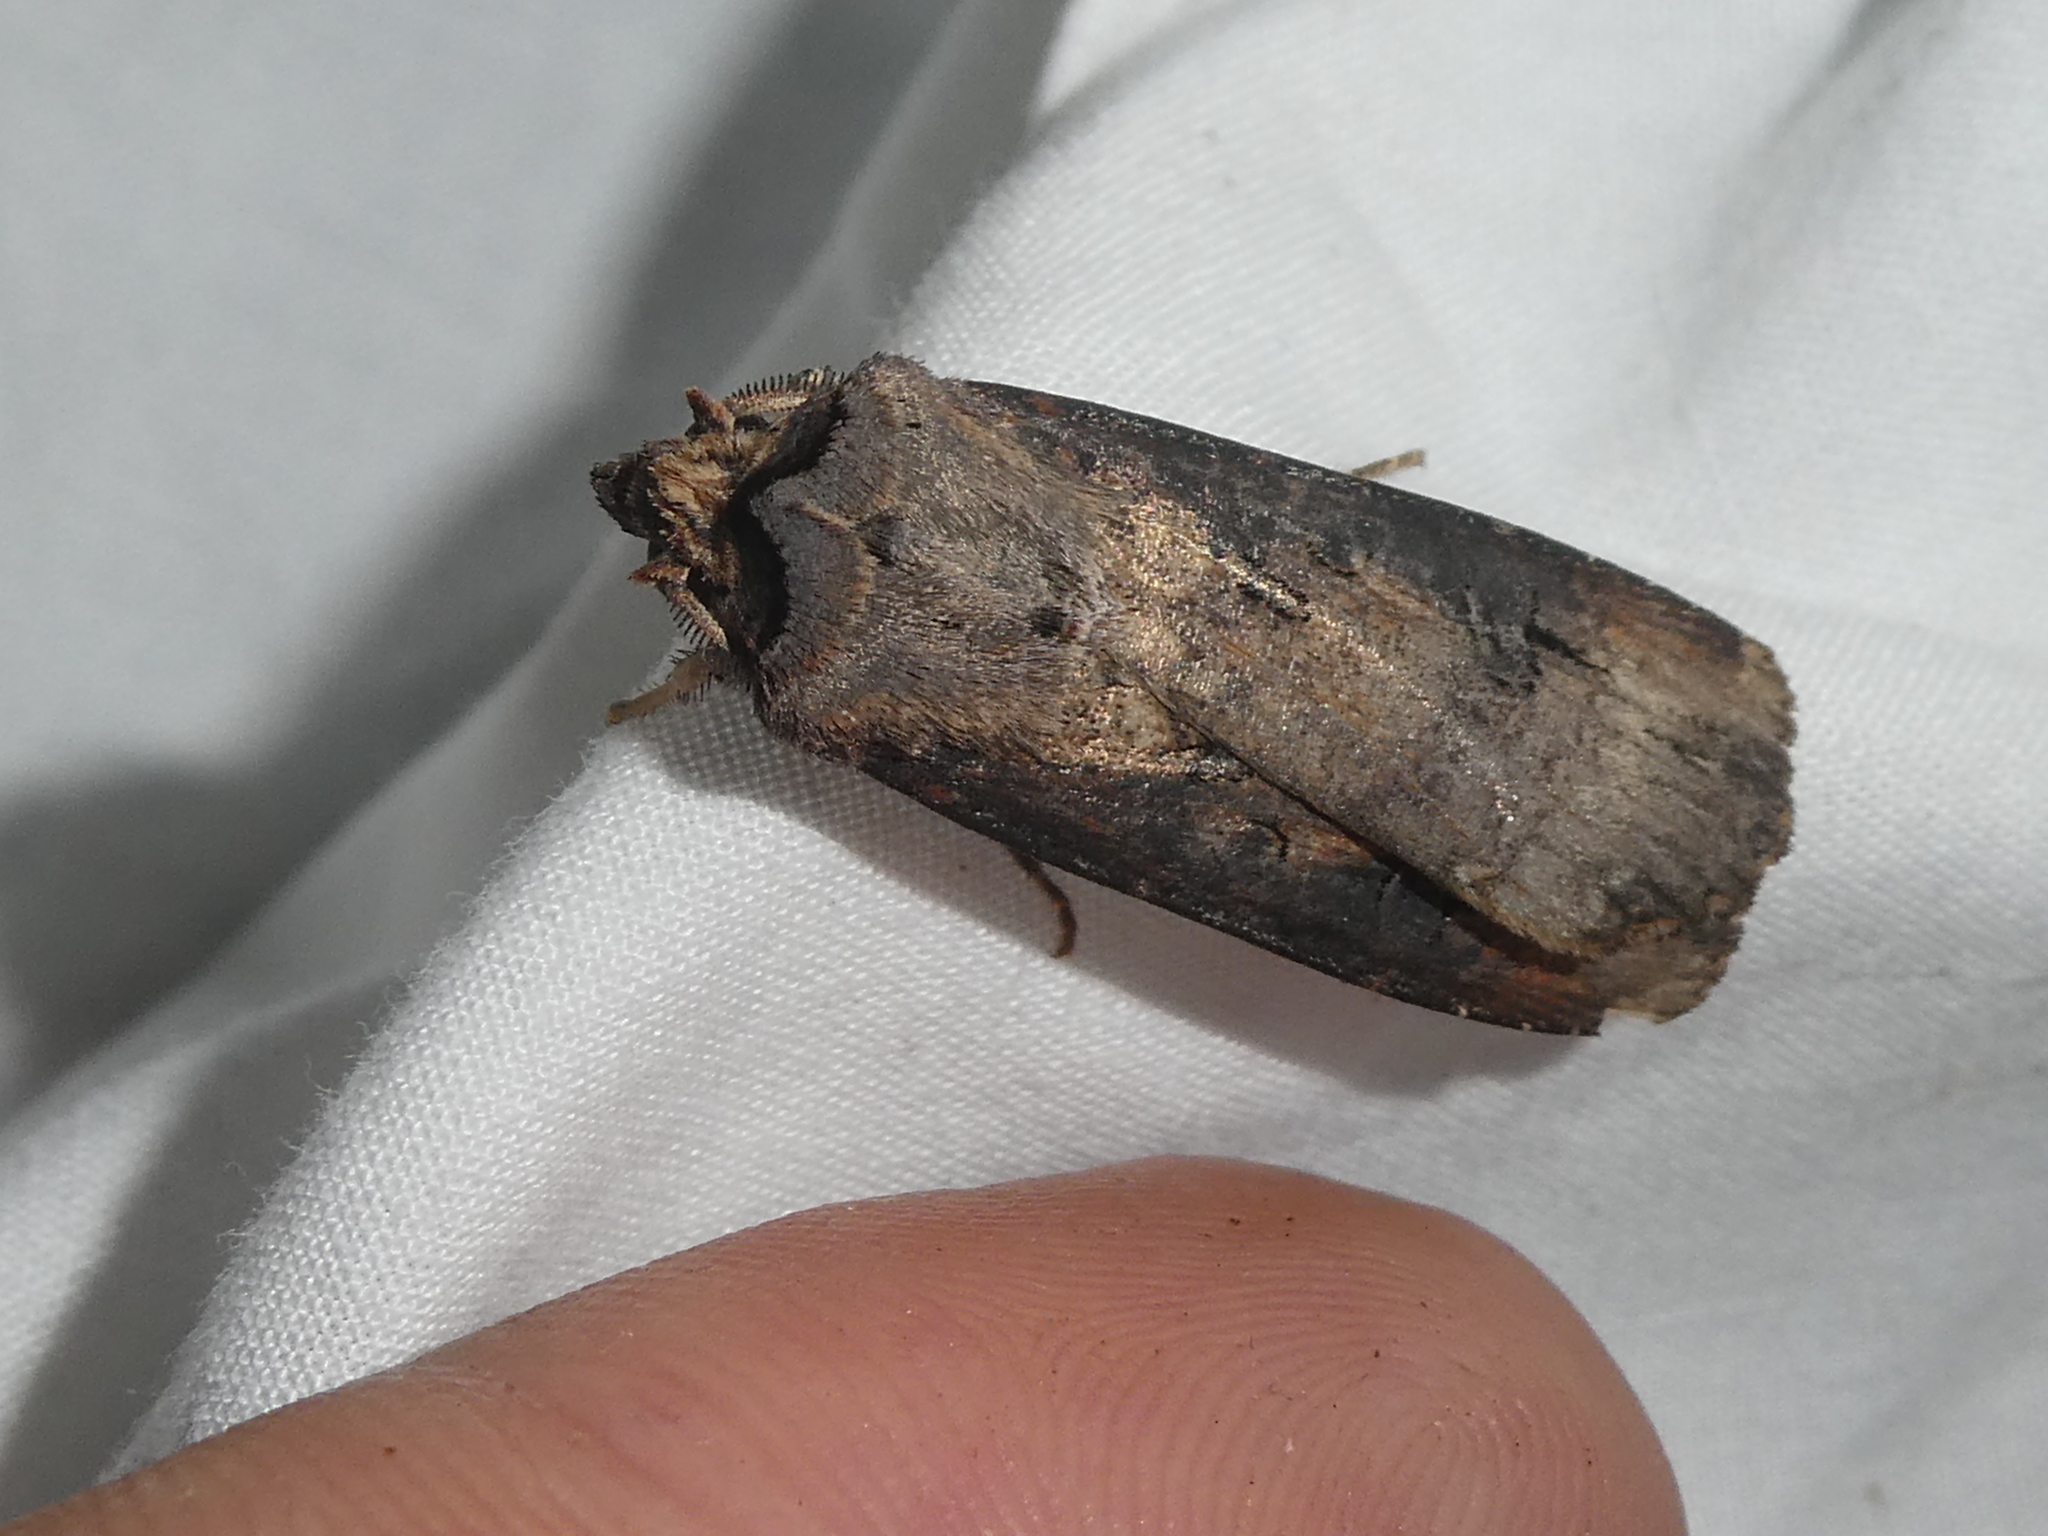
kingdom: Animalia
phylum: Arthropoda
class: Insecta
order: Lepidoptera
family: Noctuidae
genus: Agrotis
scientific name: Agrotis ipsilon
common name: Dark sword-grass
